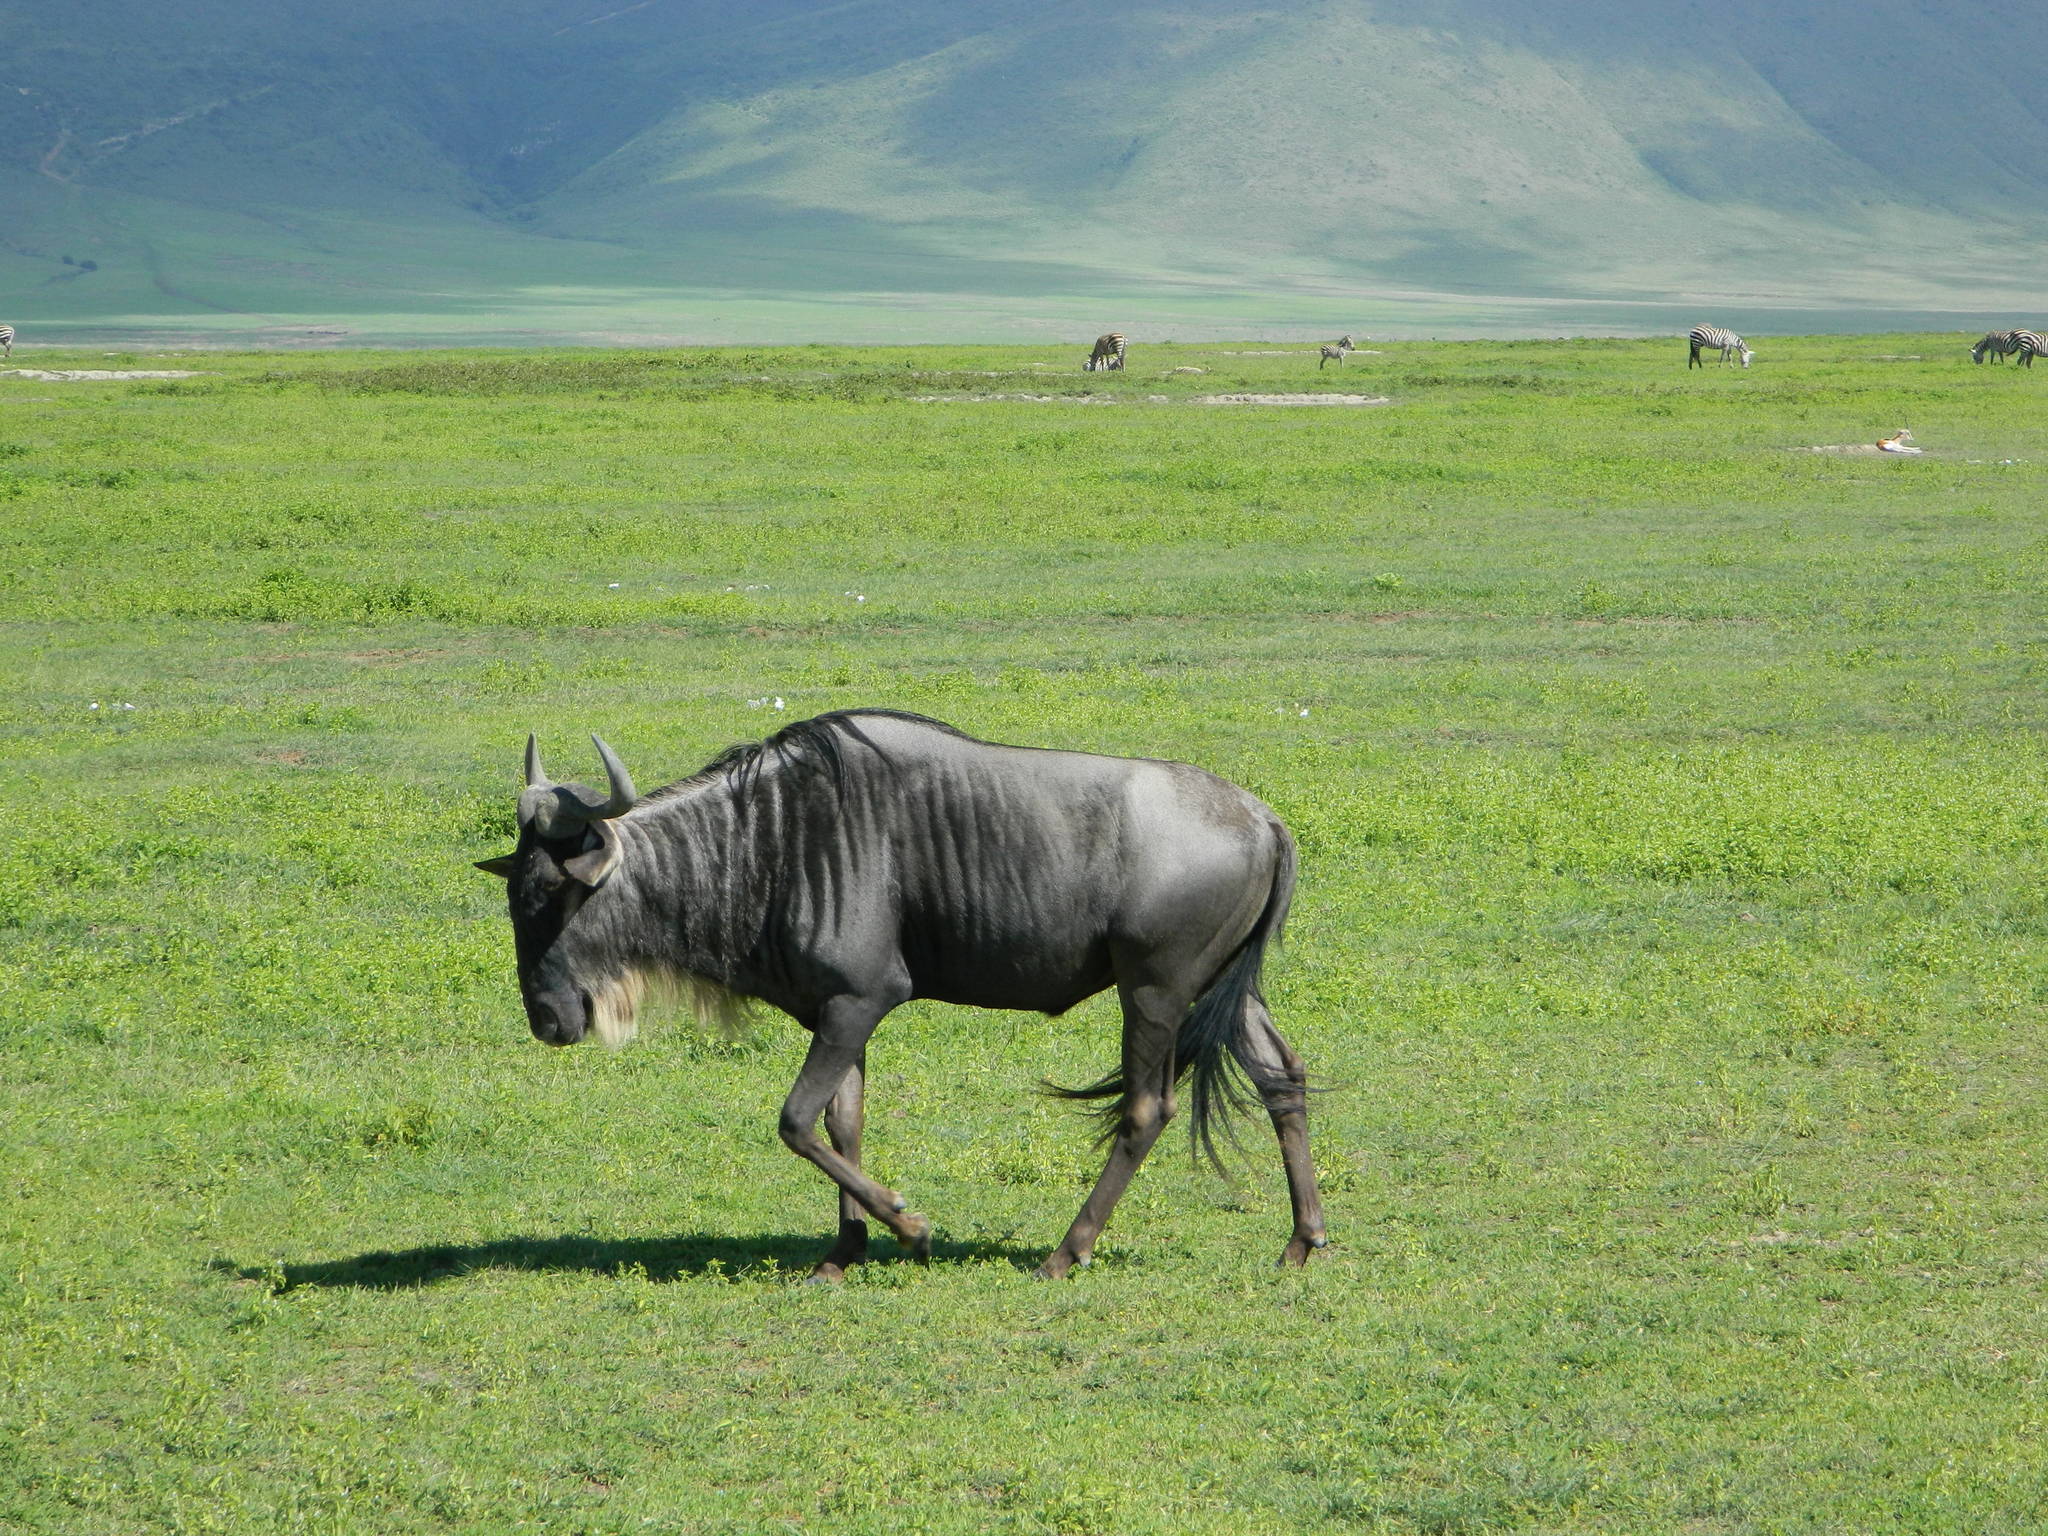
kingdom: Animalia
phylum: Chordata
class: Mammalia
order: Artiodactyla
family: Bovidae
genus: Connochaetes
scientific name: Connochaetes taurinus
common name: Blue wildebeest
